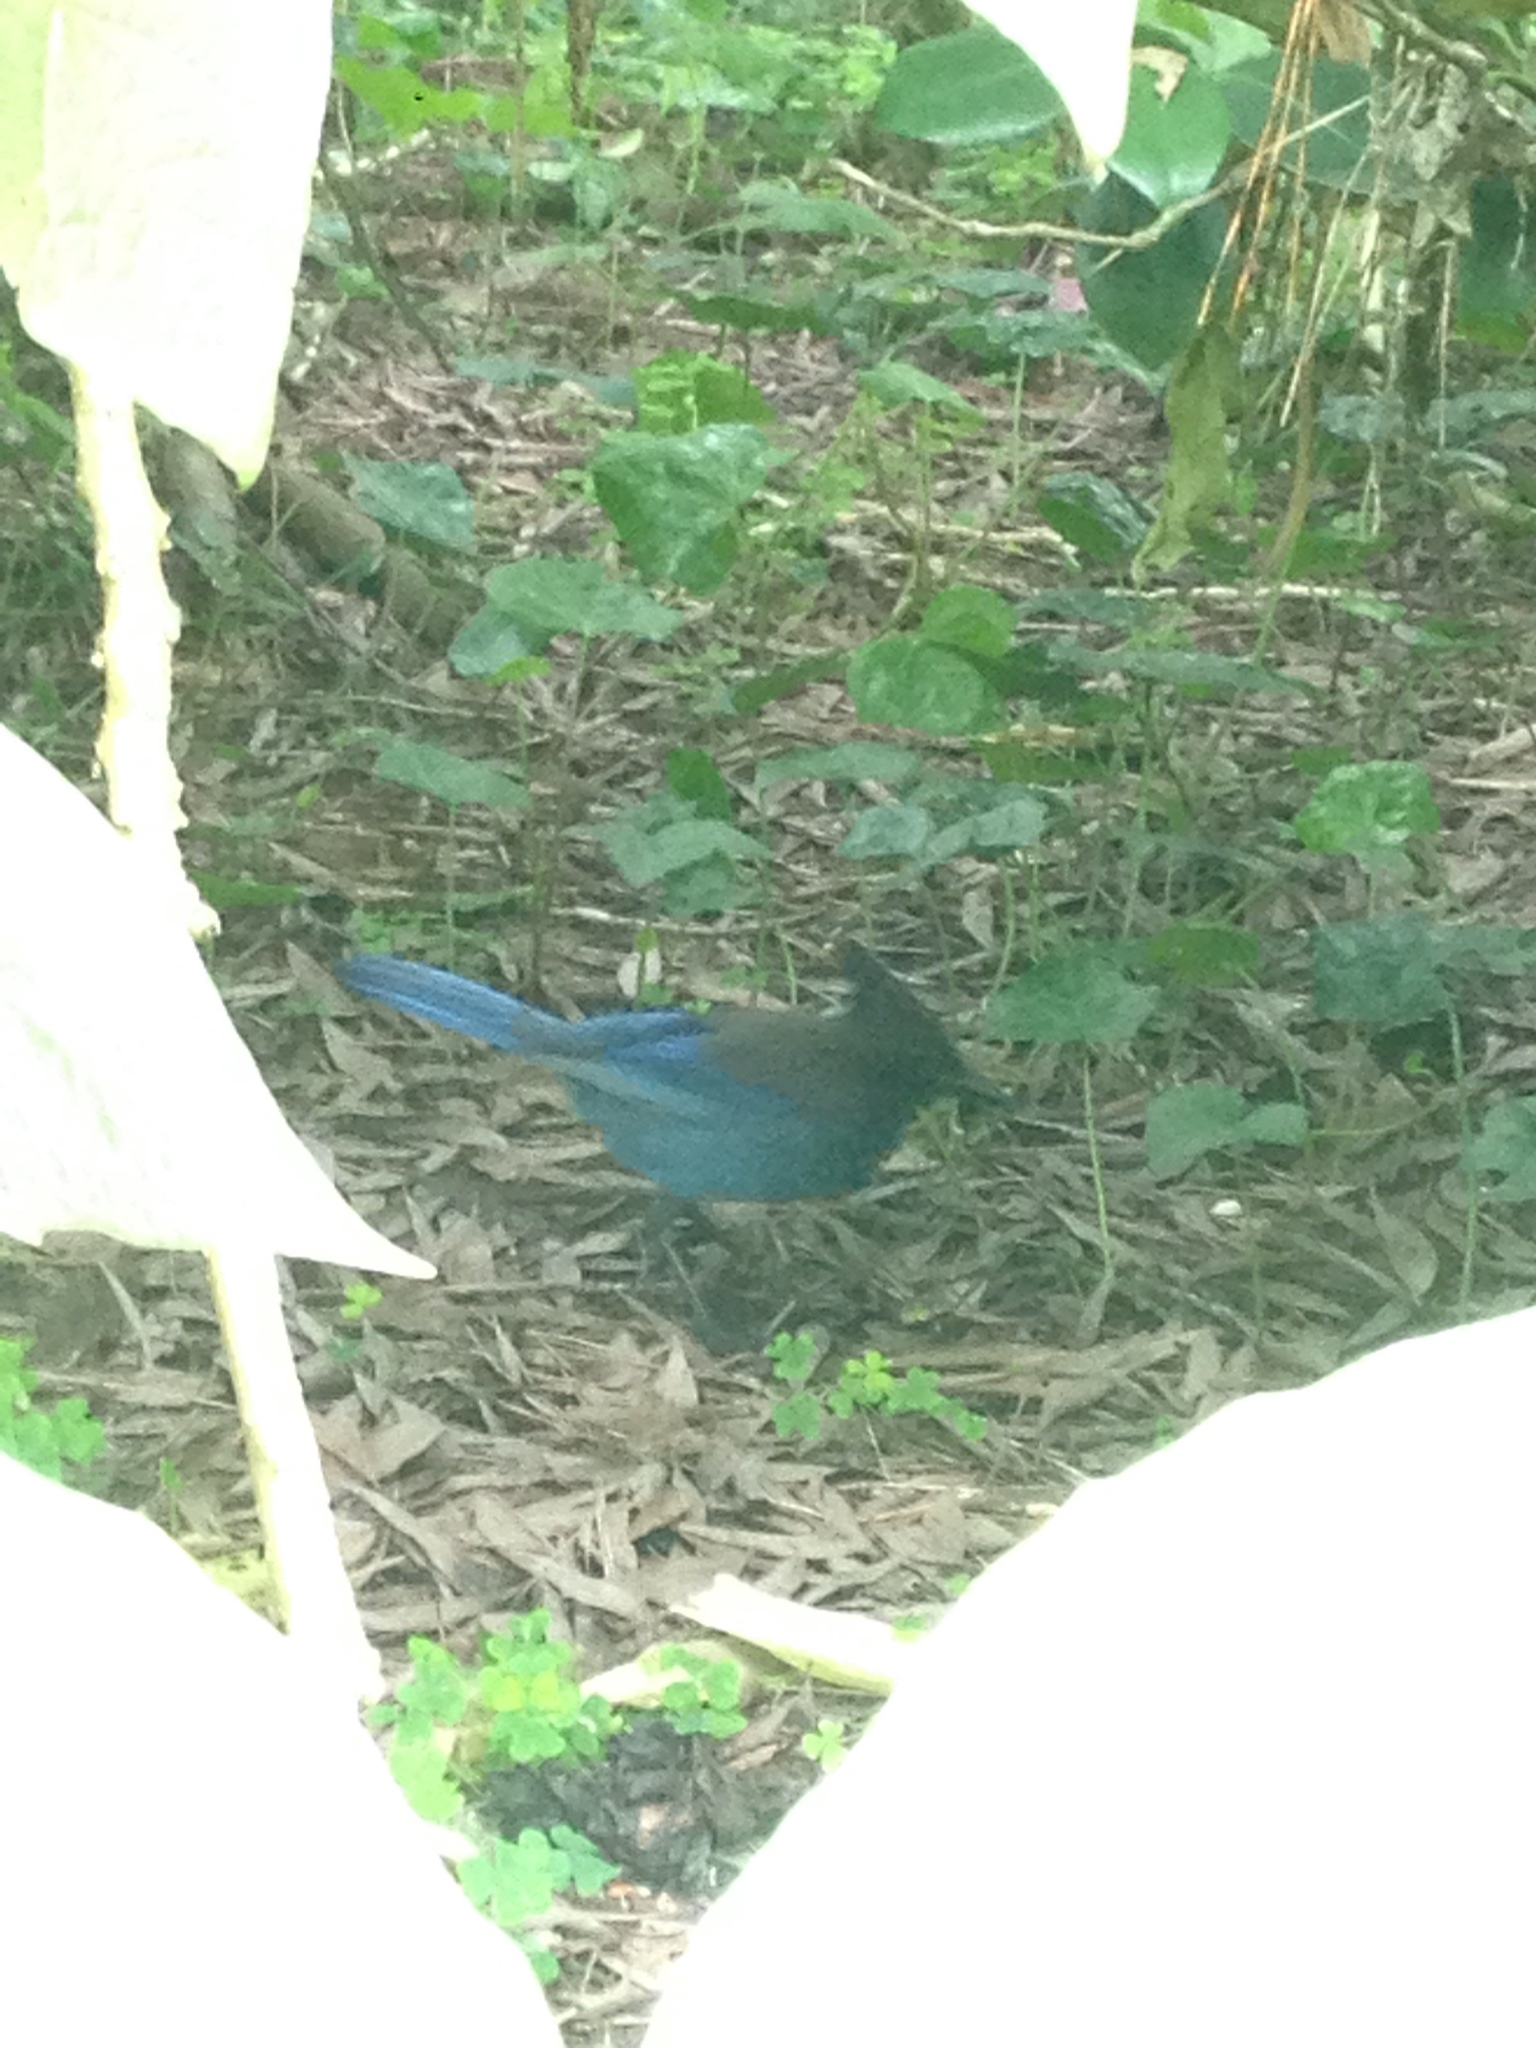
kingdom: Animalia
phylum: Chordata
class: Aves
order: Passeriformes
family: Corvidae
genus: Cyanocitta
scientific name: Cyanocitta stelleri
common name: Steller's jay
